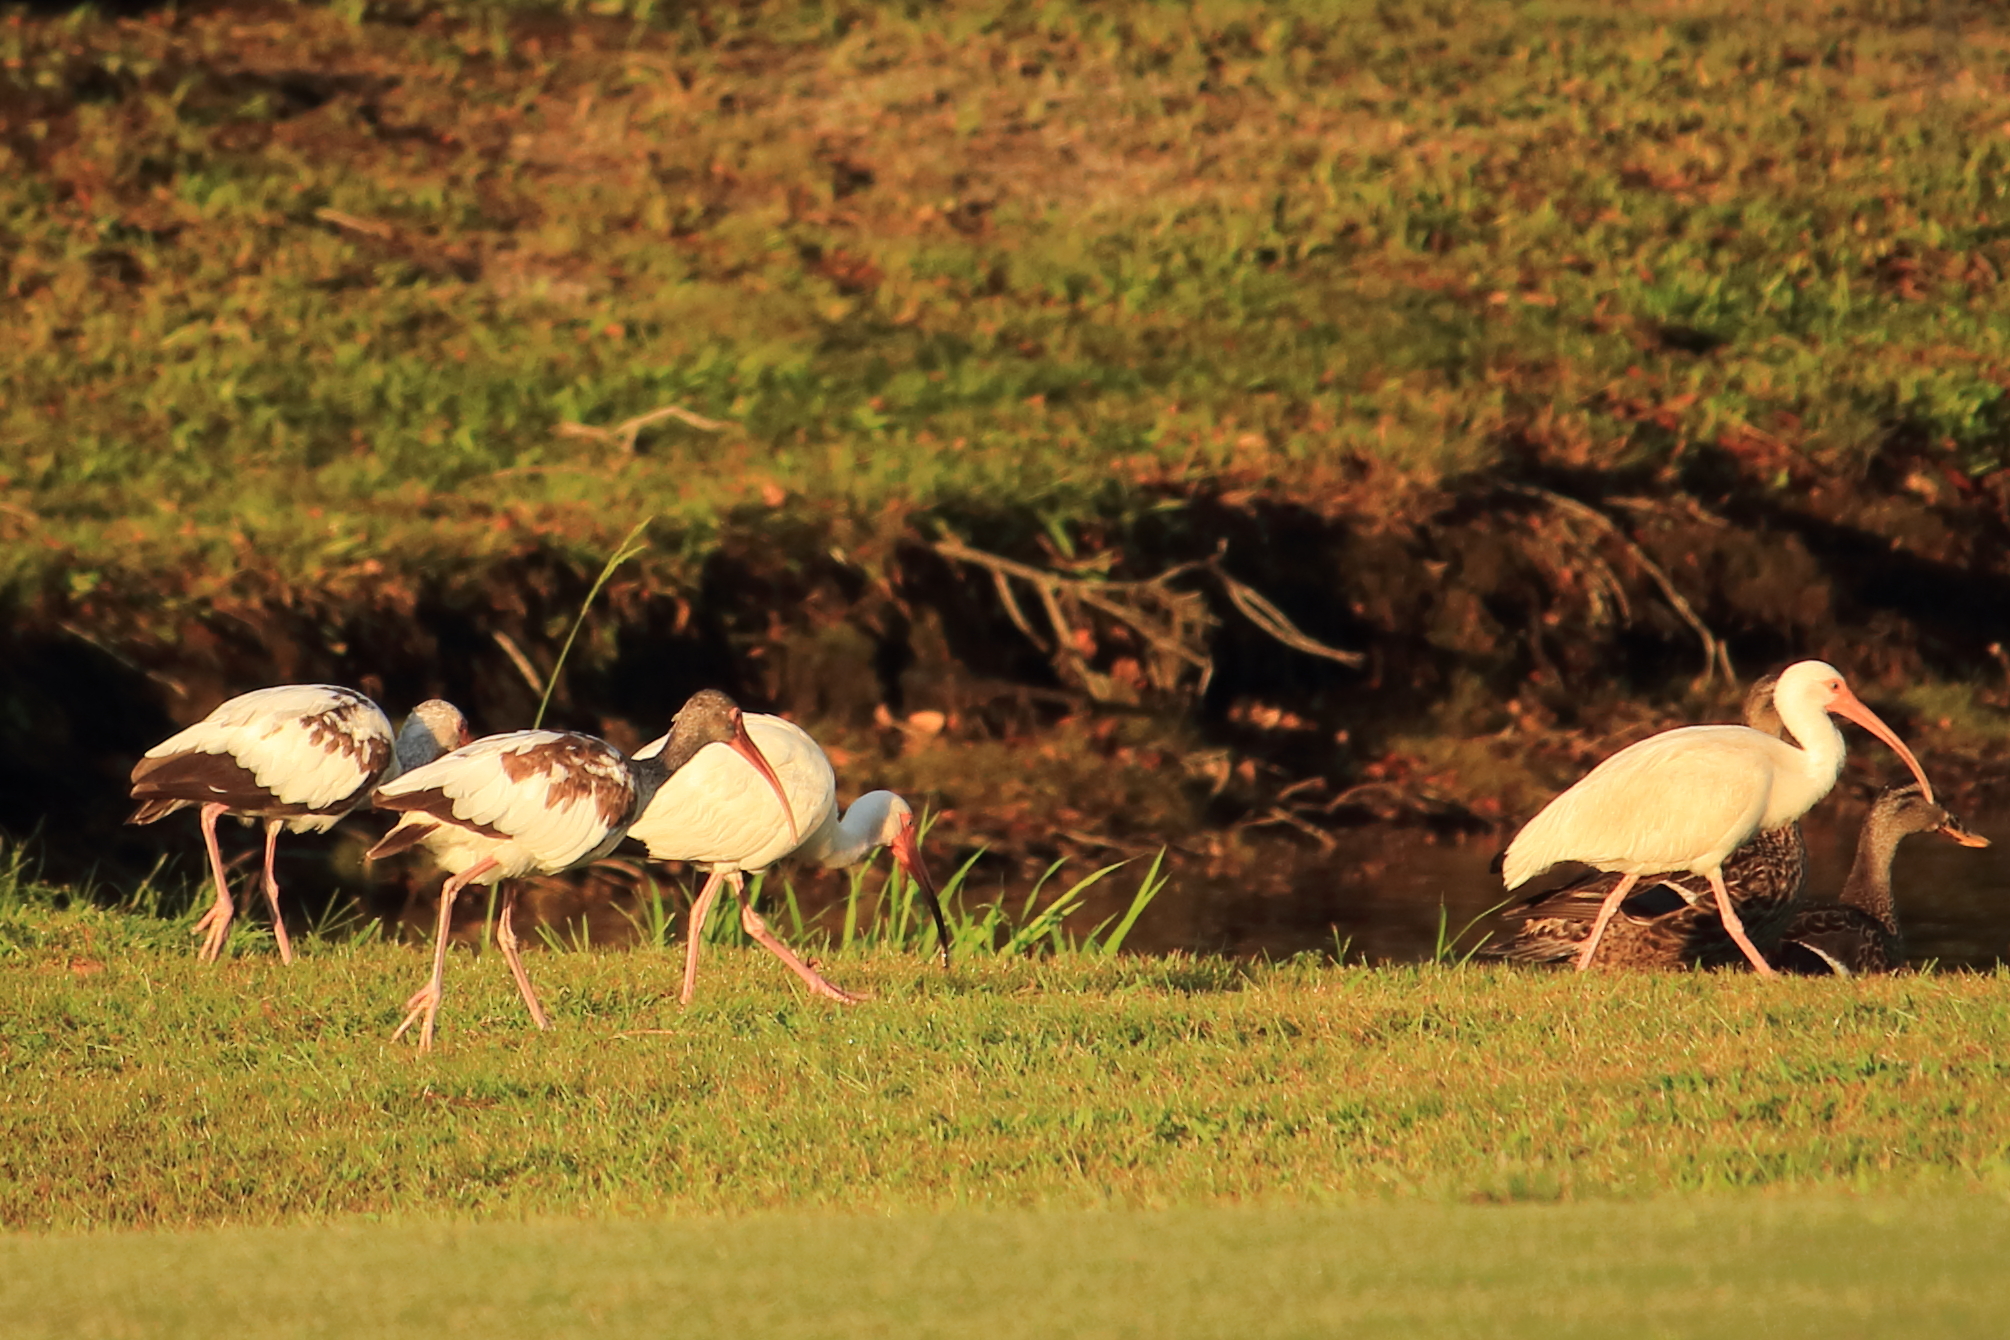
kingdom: Animalia
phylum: Chordata
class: Aves
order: Pelecaniformes
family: Threskiornithidae
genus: Eudocimus
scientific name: Eudocimus albus
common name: White ibis
